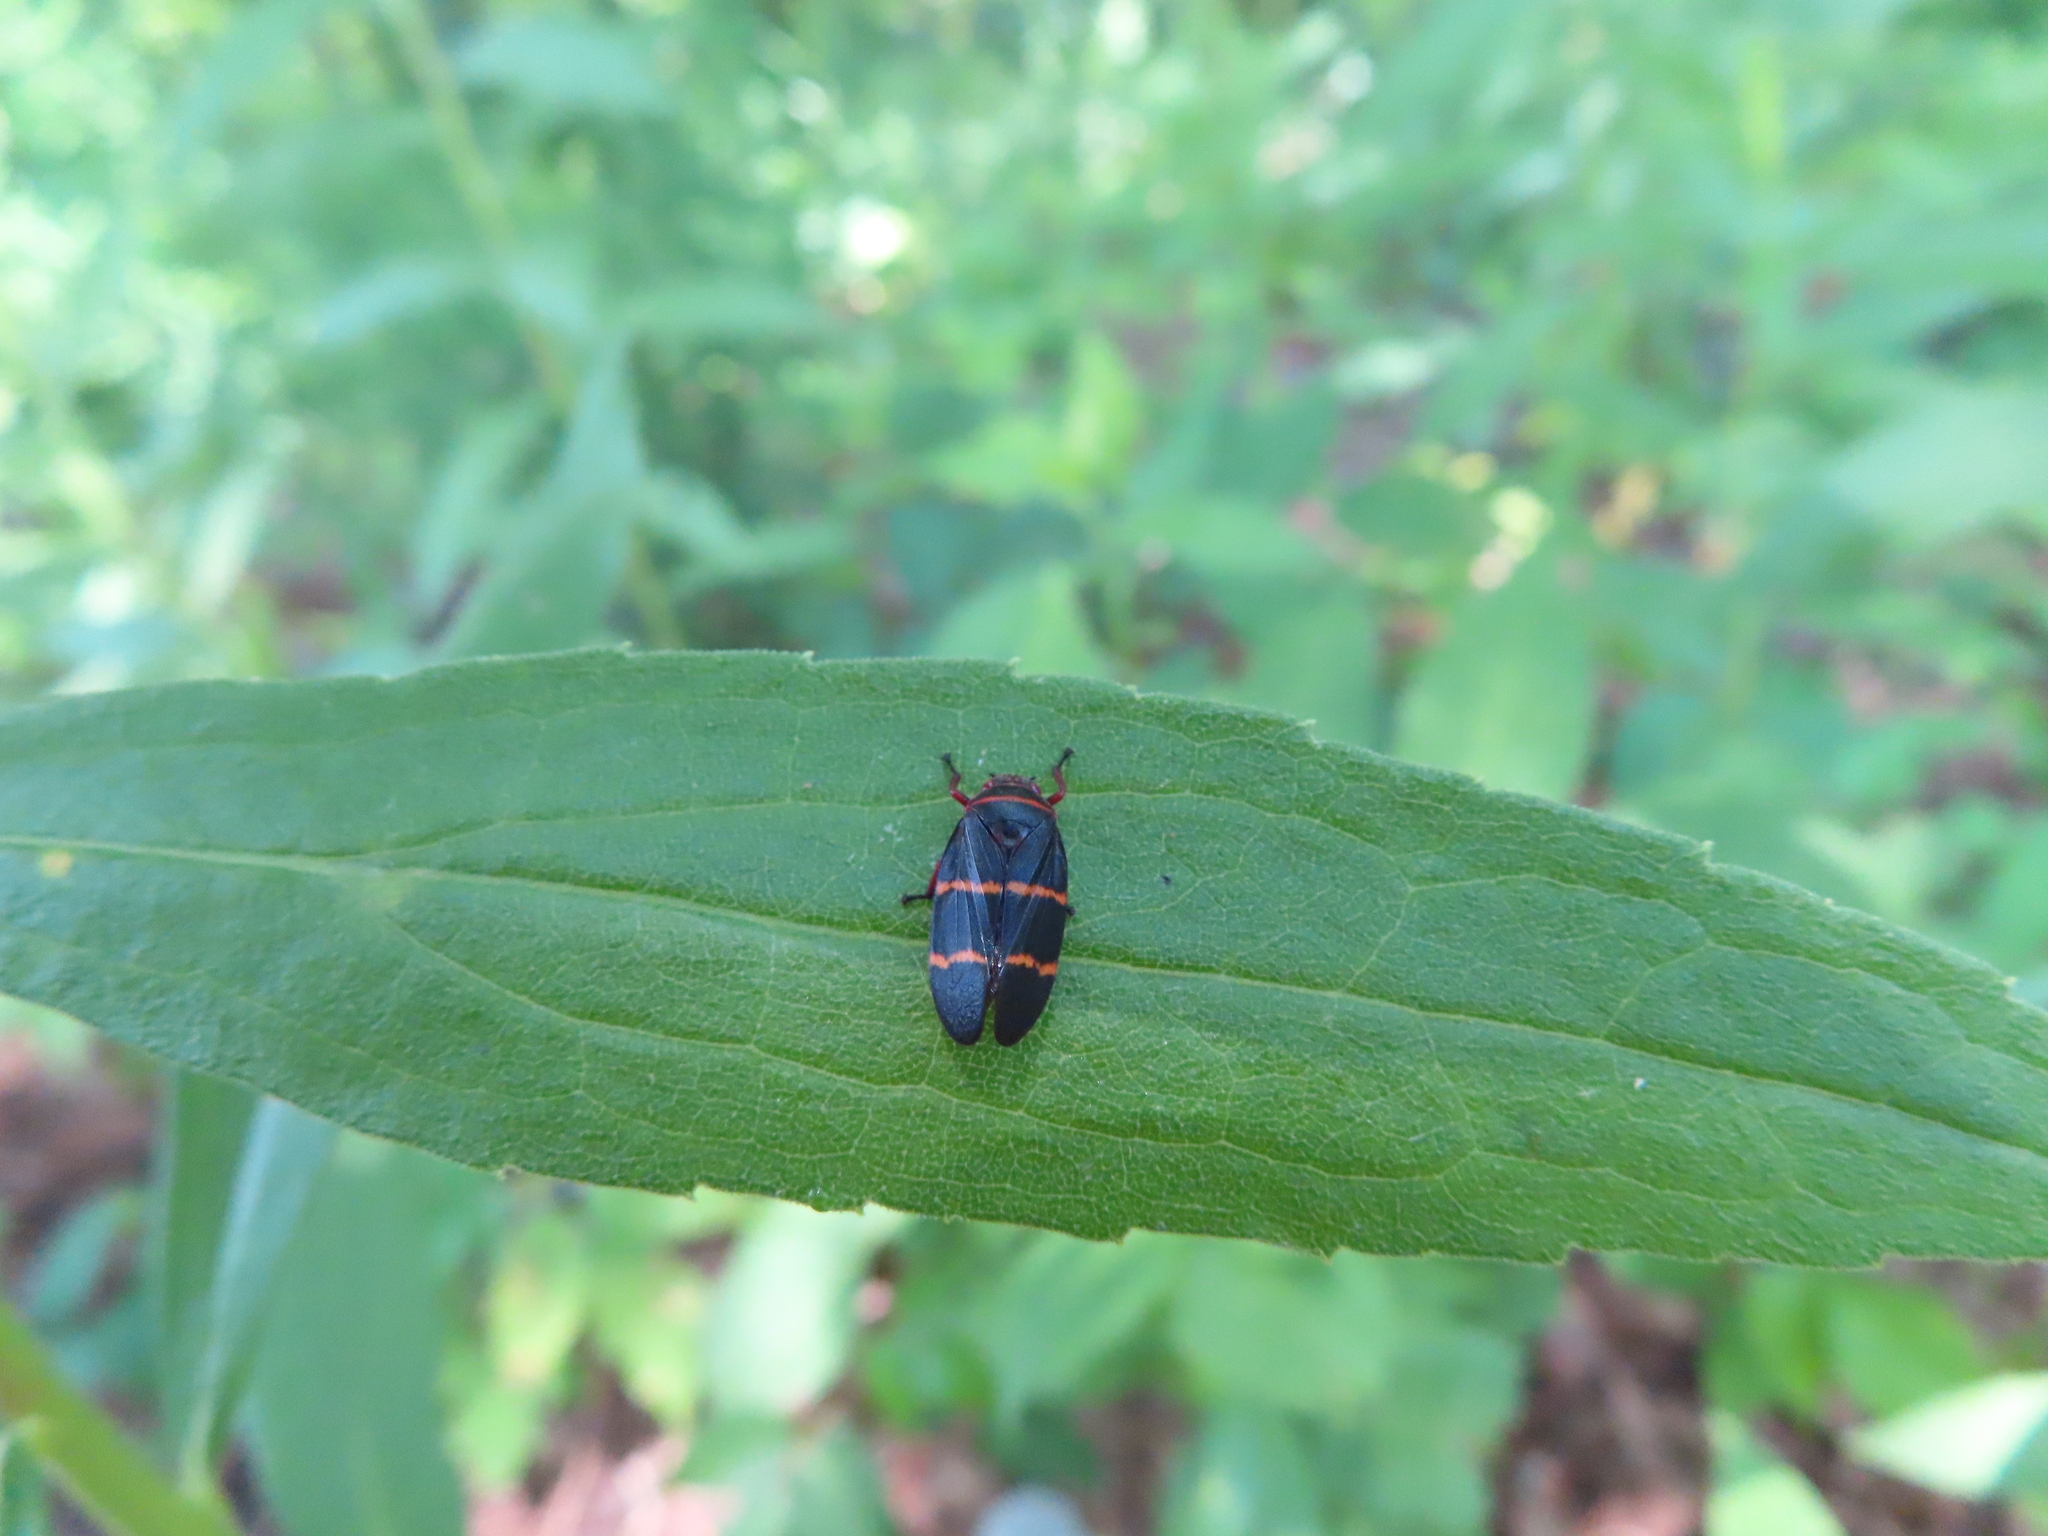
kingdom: Animalia
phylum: Arthropoda
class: Insecta
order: Hemiptera
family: Cercopidae
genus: Prosapia
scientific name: Prosapia bicincta
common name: Twolined spittlebug
